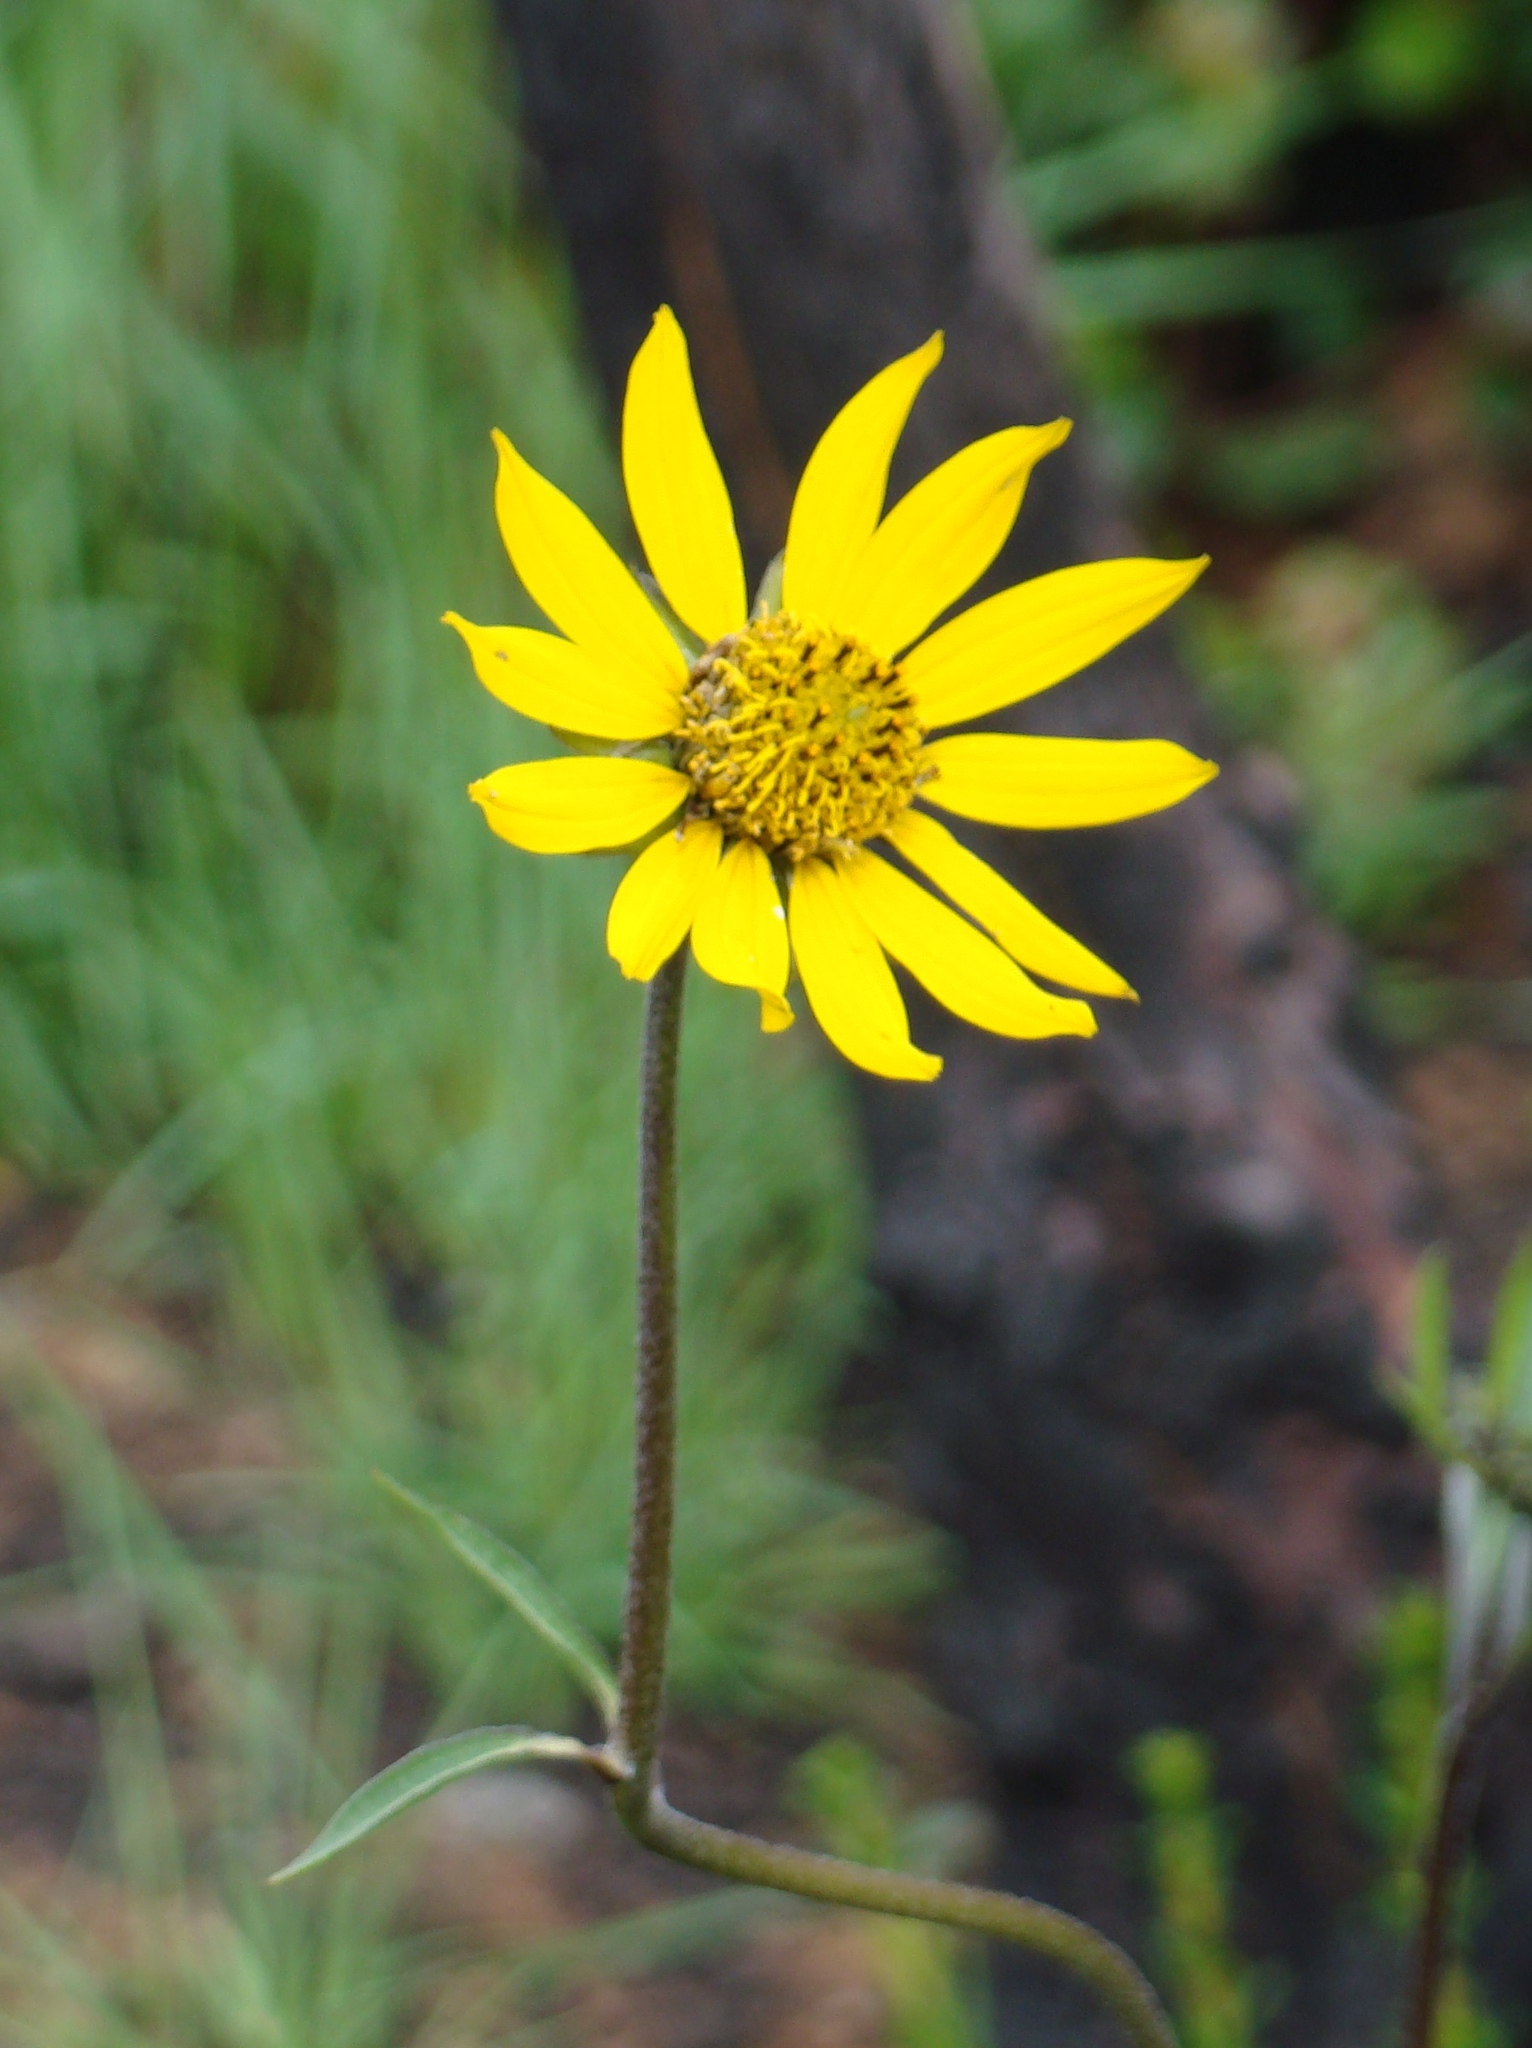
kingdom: Plantae
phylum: Tracheophyta
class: Magnoliopsida
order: Asterales
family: Asteraceae
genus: Helianthella
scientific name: Helianthella californica
